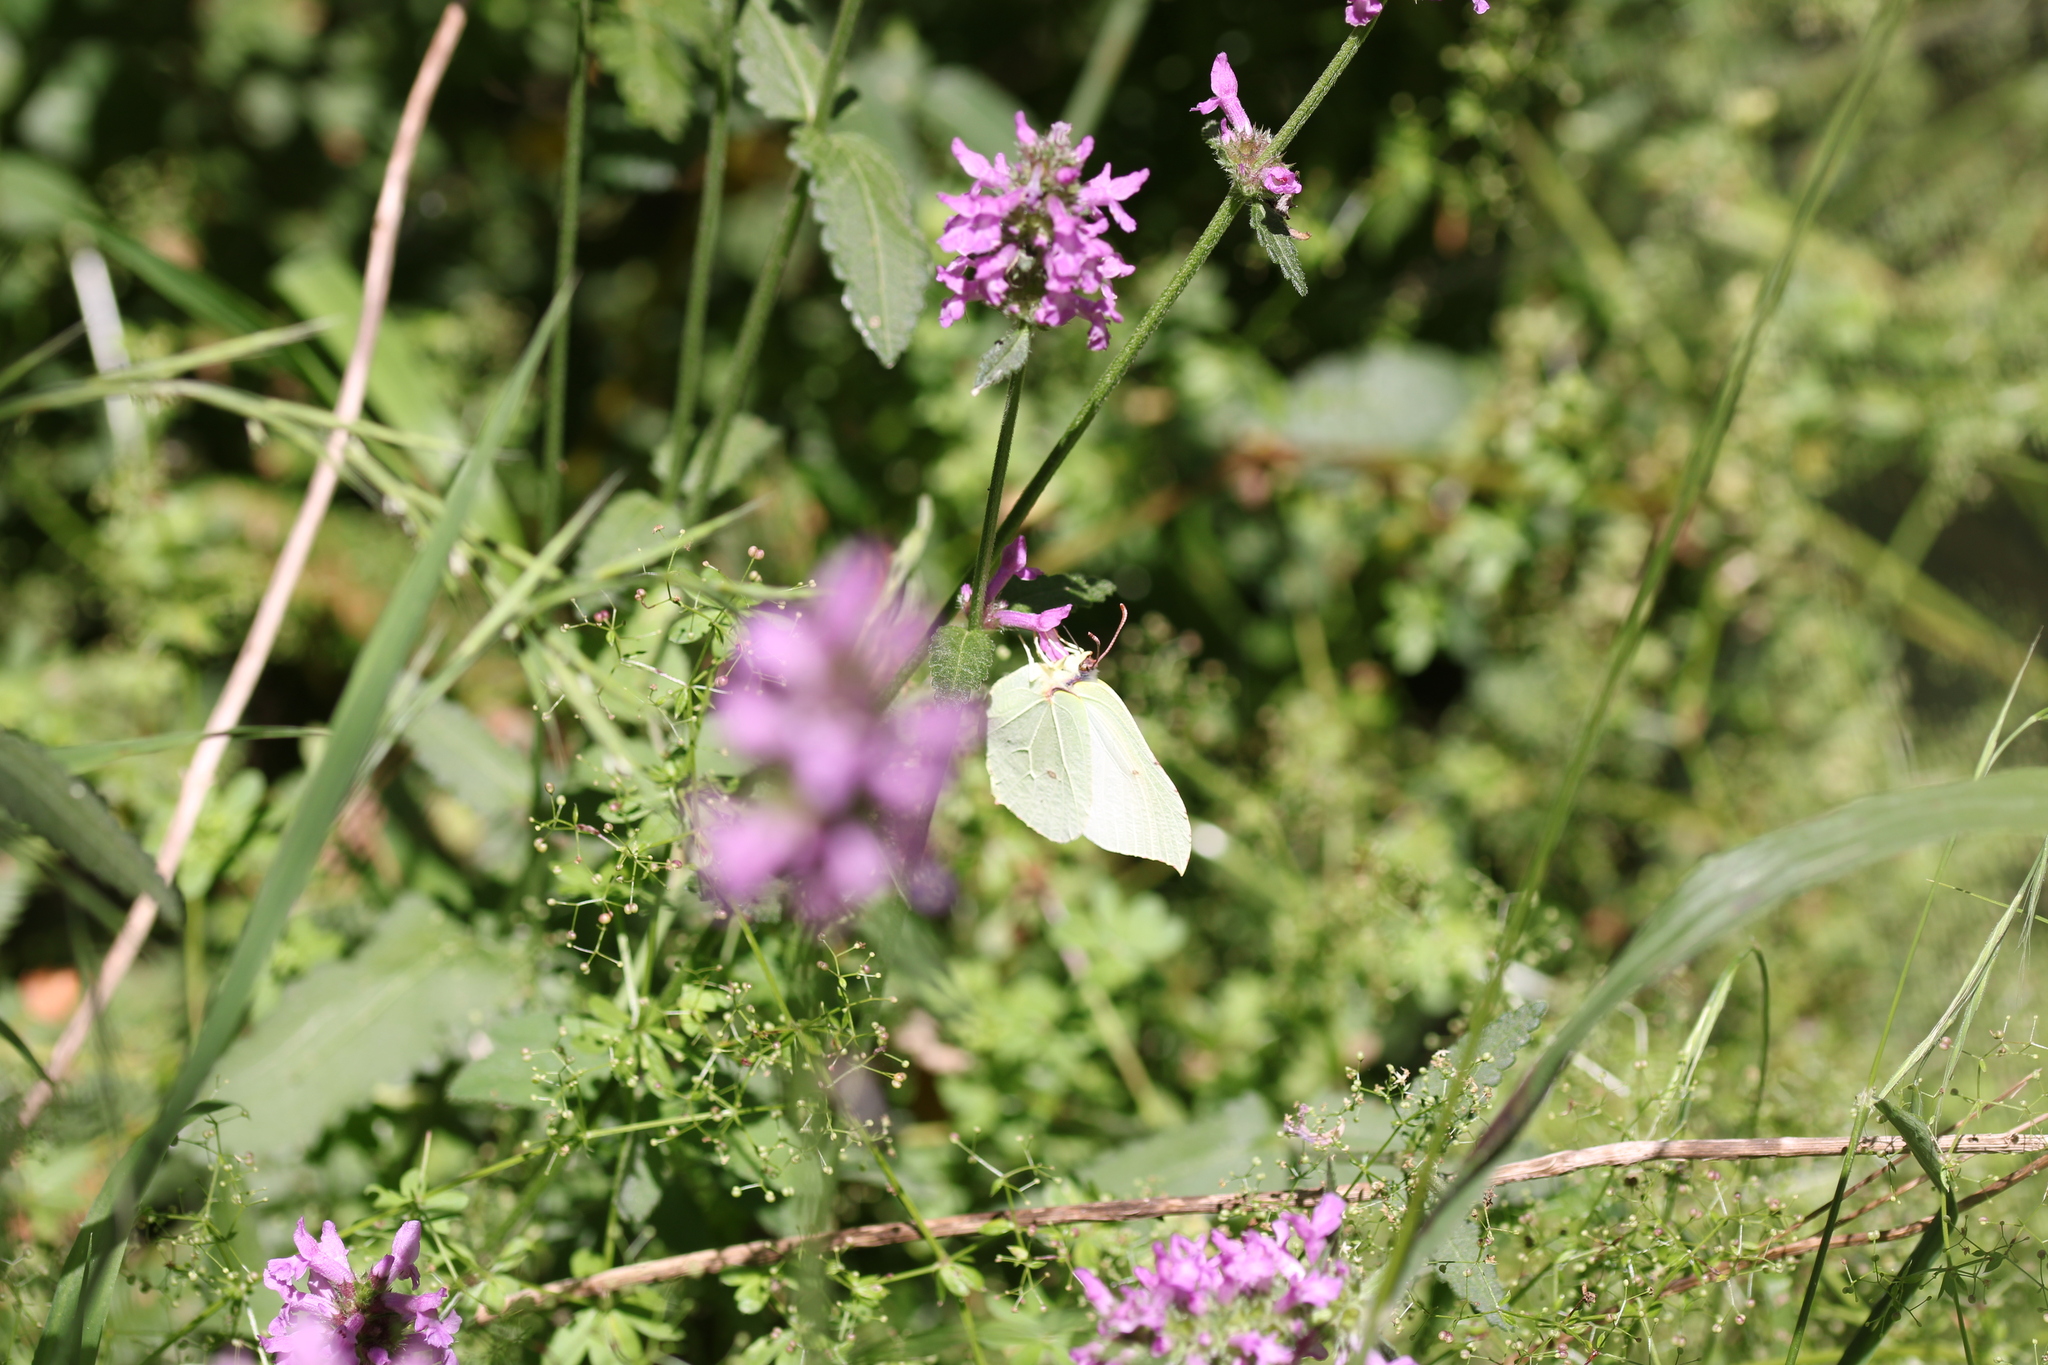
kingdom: Animalia
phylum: Arthropoda
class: Insecta
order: Lepidoptera
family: Pieridae
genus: Gonepteryx
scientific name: Gonepteryx rhamni
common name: Brimstone
